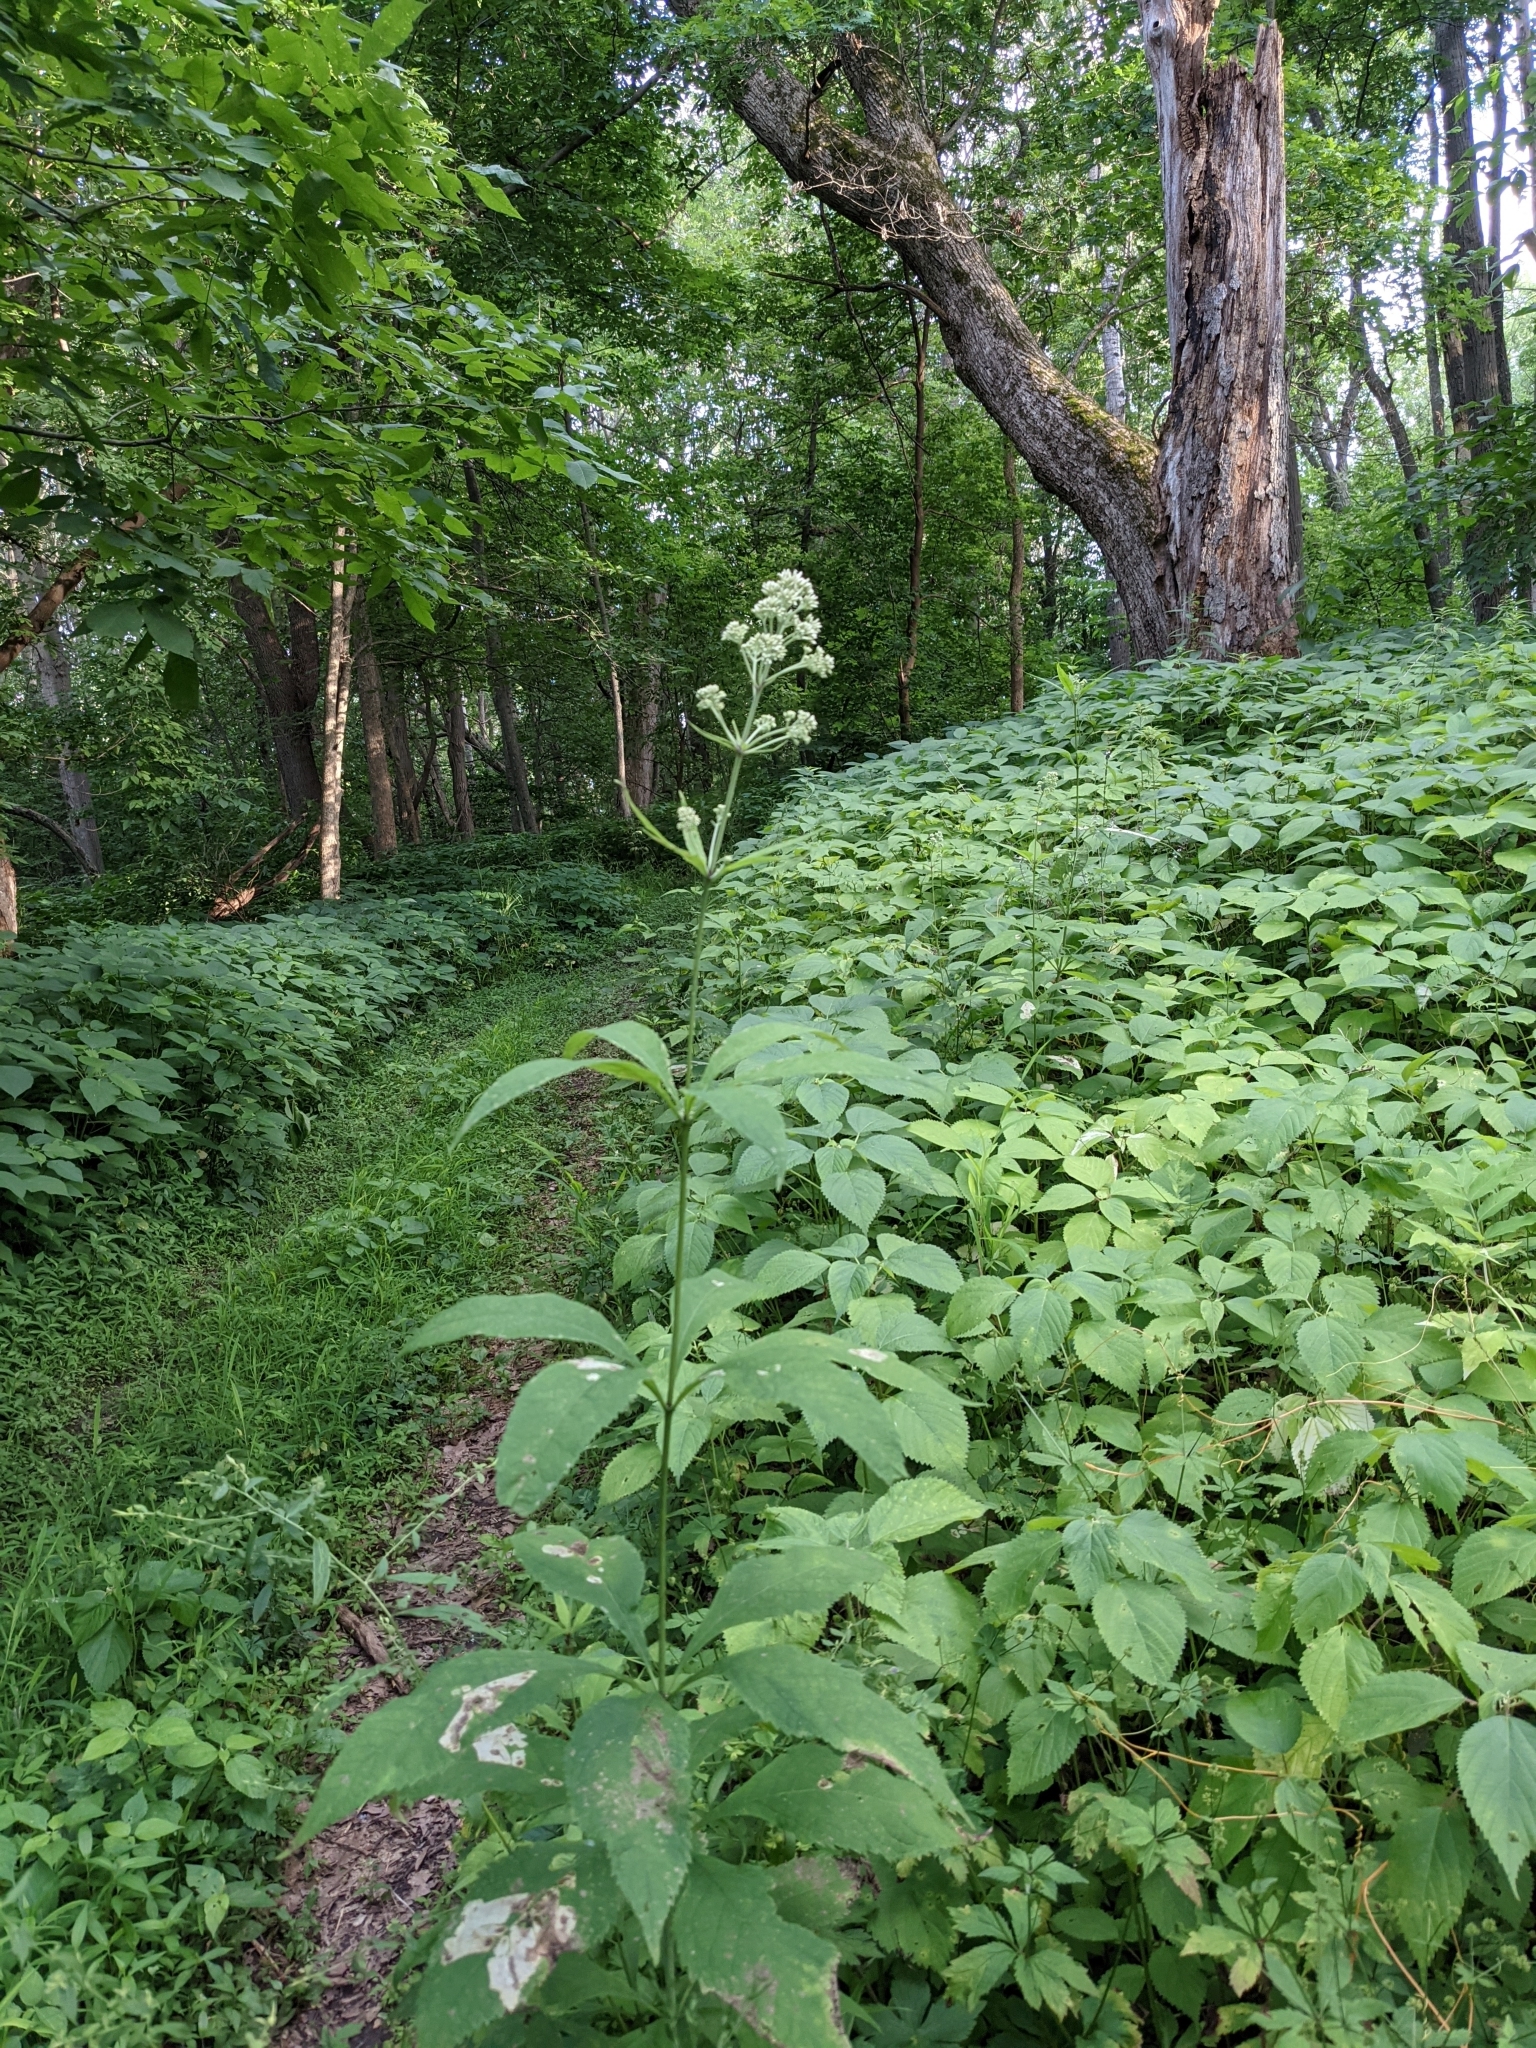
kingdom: Plantae
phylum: Tracheophyta
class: Magnoliopsida
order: Asterales
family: Asteraceae
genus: Eutrochium
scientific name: Eutrochium purpureum
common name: Gravelroot
